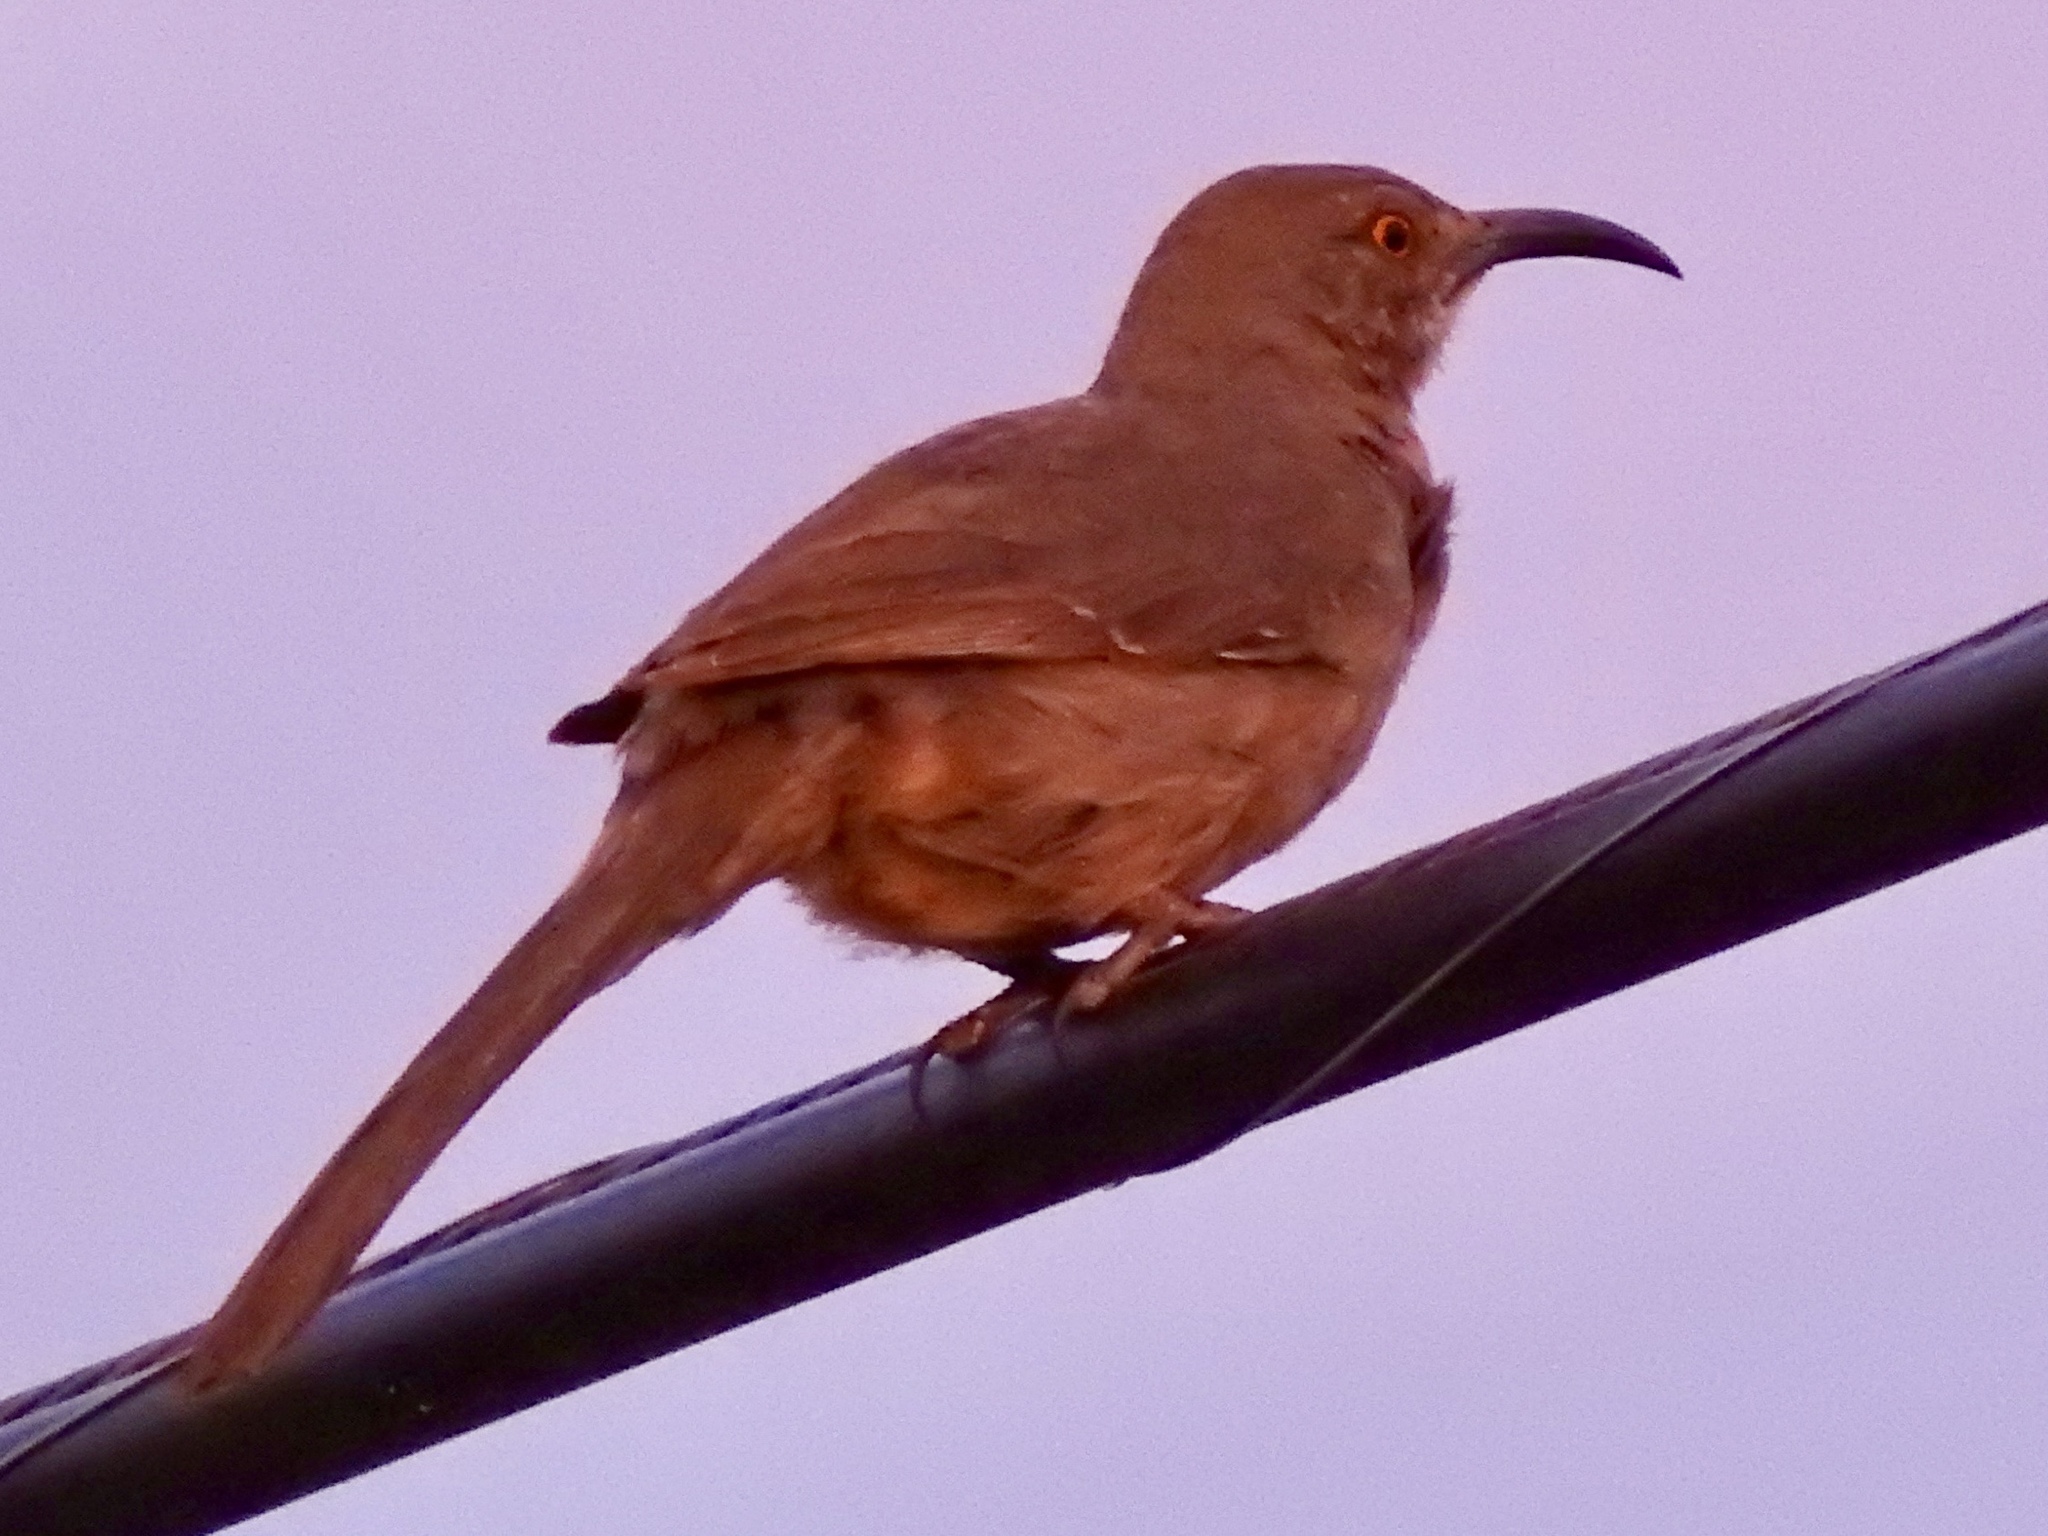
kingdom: Animalia
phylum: Chordata
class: Aves
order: Passeriformes
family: Mimidae
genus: Toxostoma
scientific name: Toxostoma curvirostre
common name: Curve-billed thrasher
